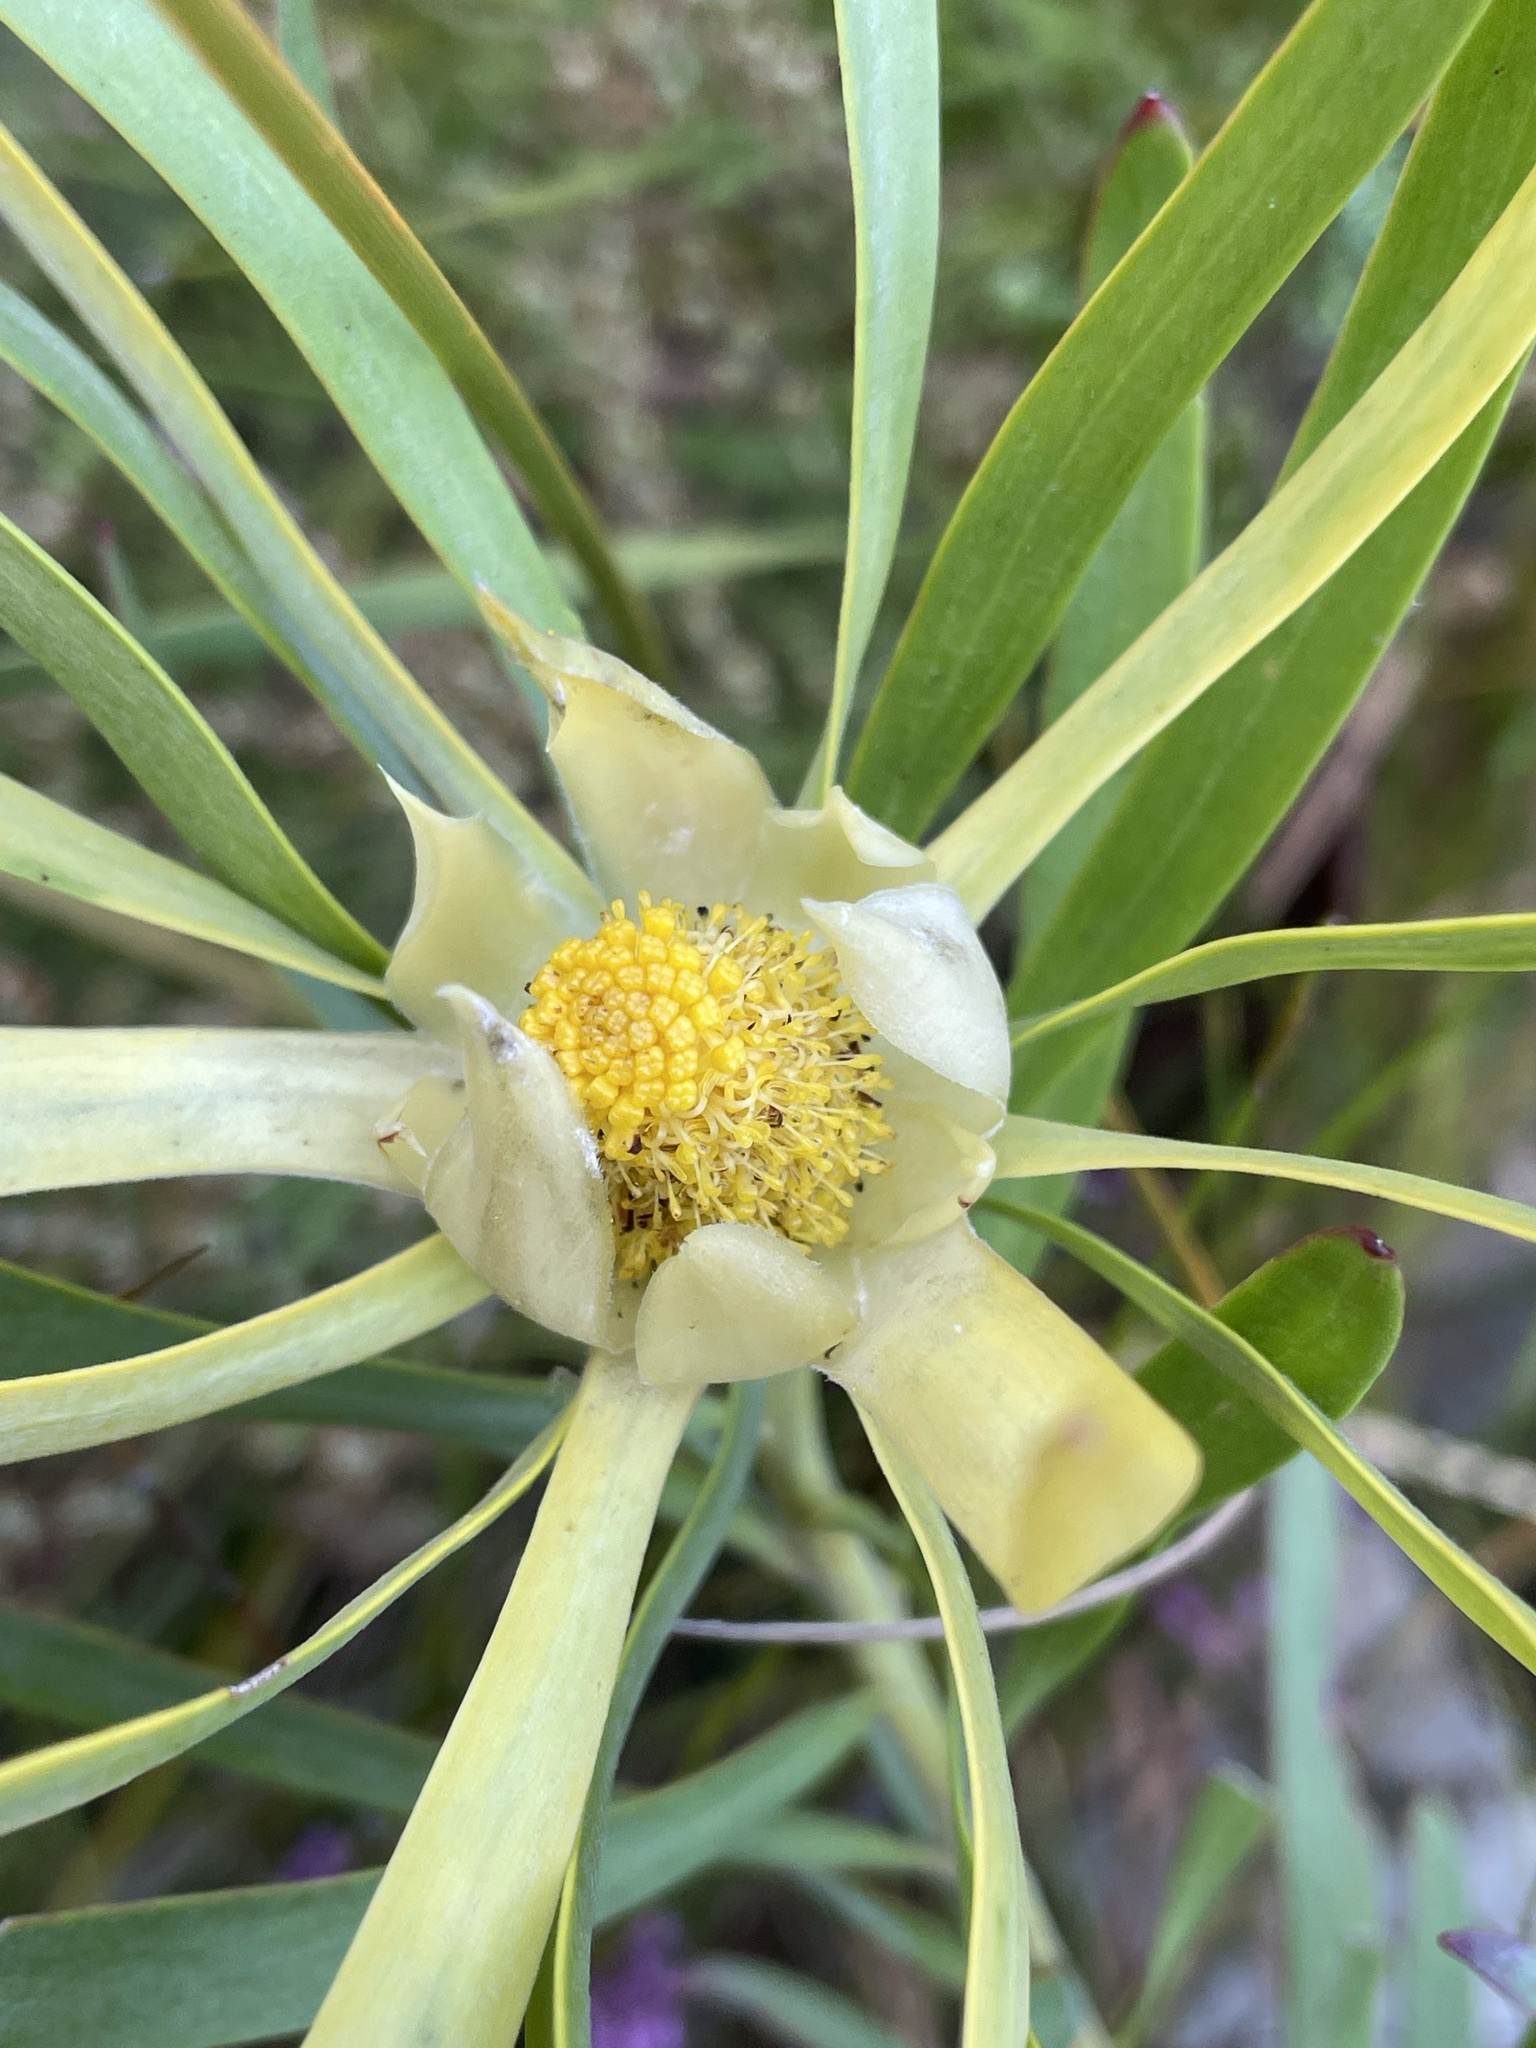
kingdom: Plantae
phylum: Tracheophyta
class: Magnoliopsida
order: Proteales
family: Proteaceae
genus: Leucadendron
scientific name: Leucadendron eucalyptifolium
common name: Gum-leaved conebush
